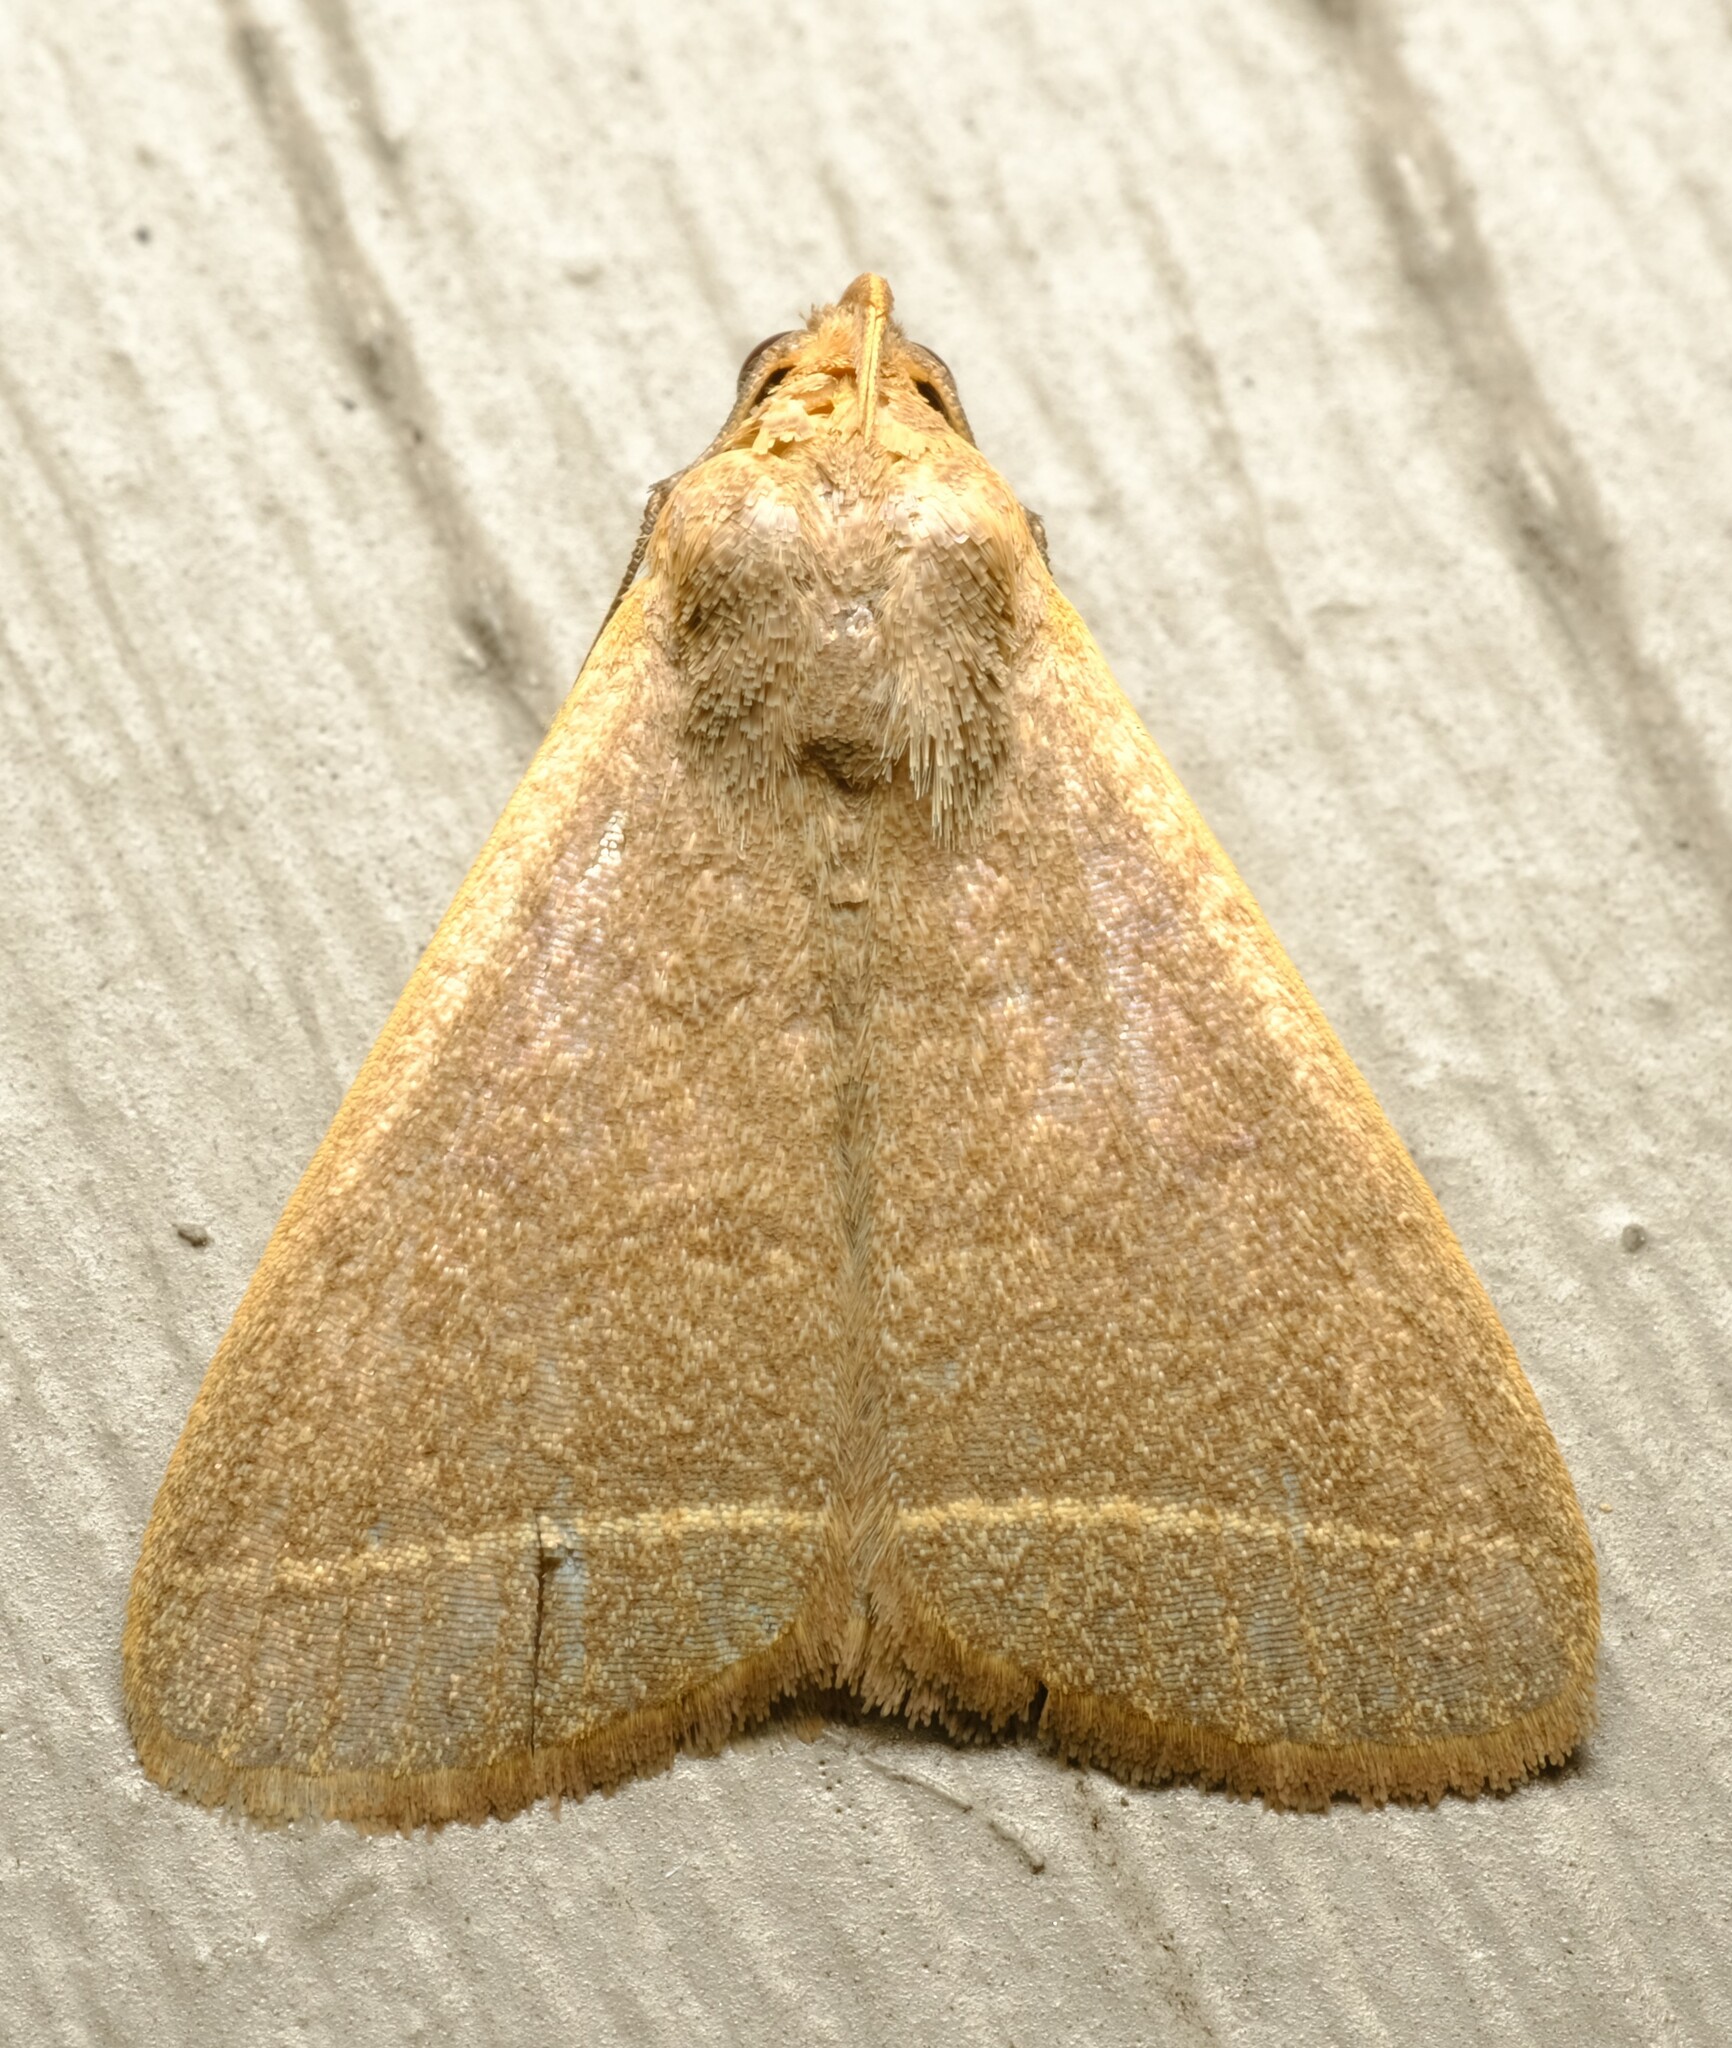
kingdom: Animalia
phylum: Arthropoda
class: Insecta
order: Lepidoptera
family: Erebidae
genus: Simplicia
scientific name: Simplicia cornicalis
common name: Tiki hut litter moth
